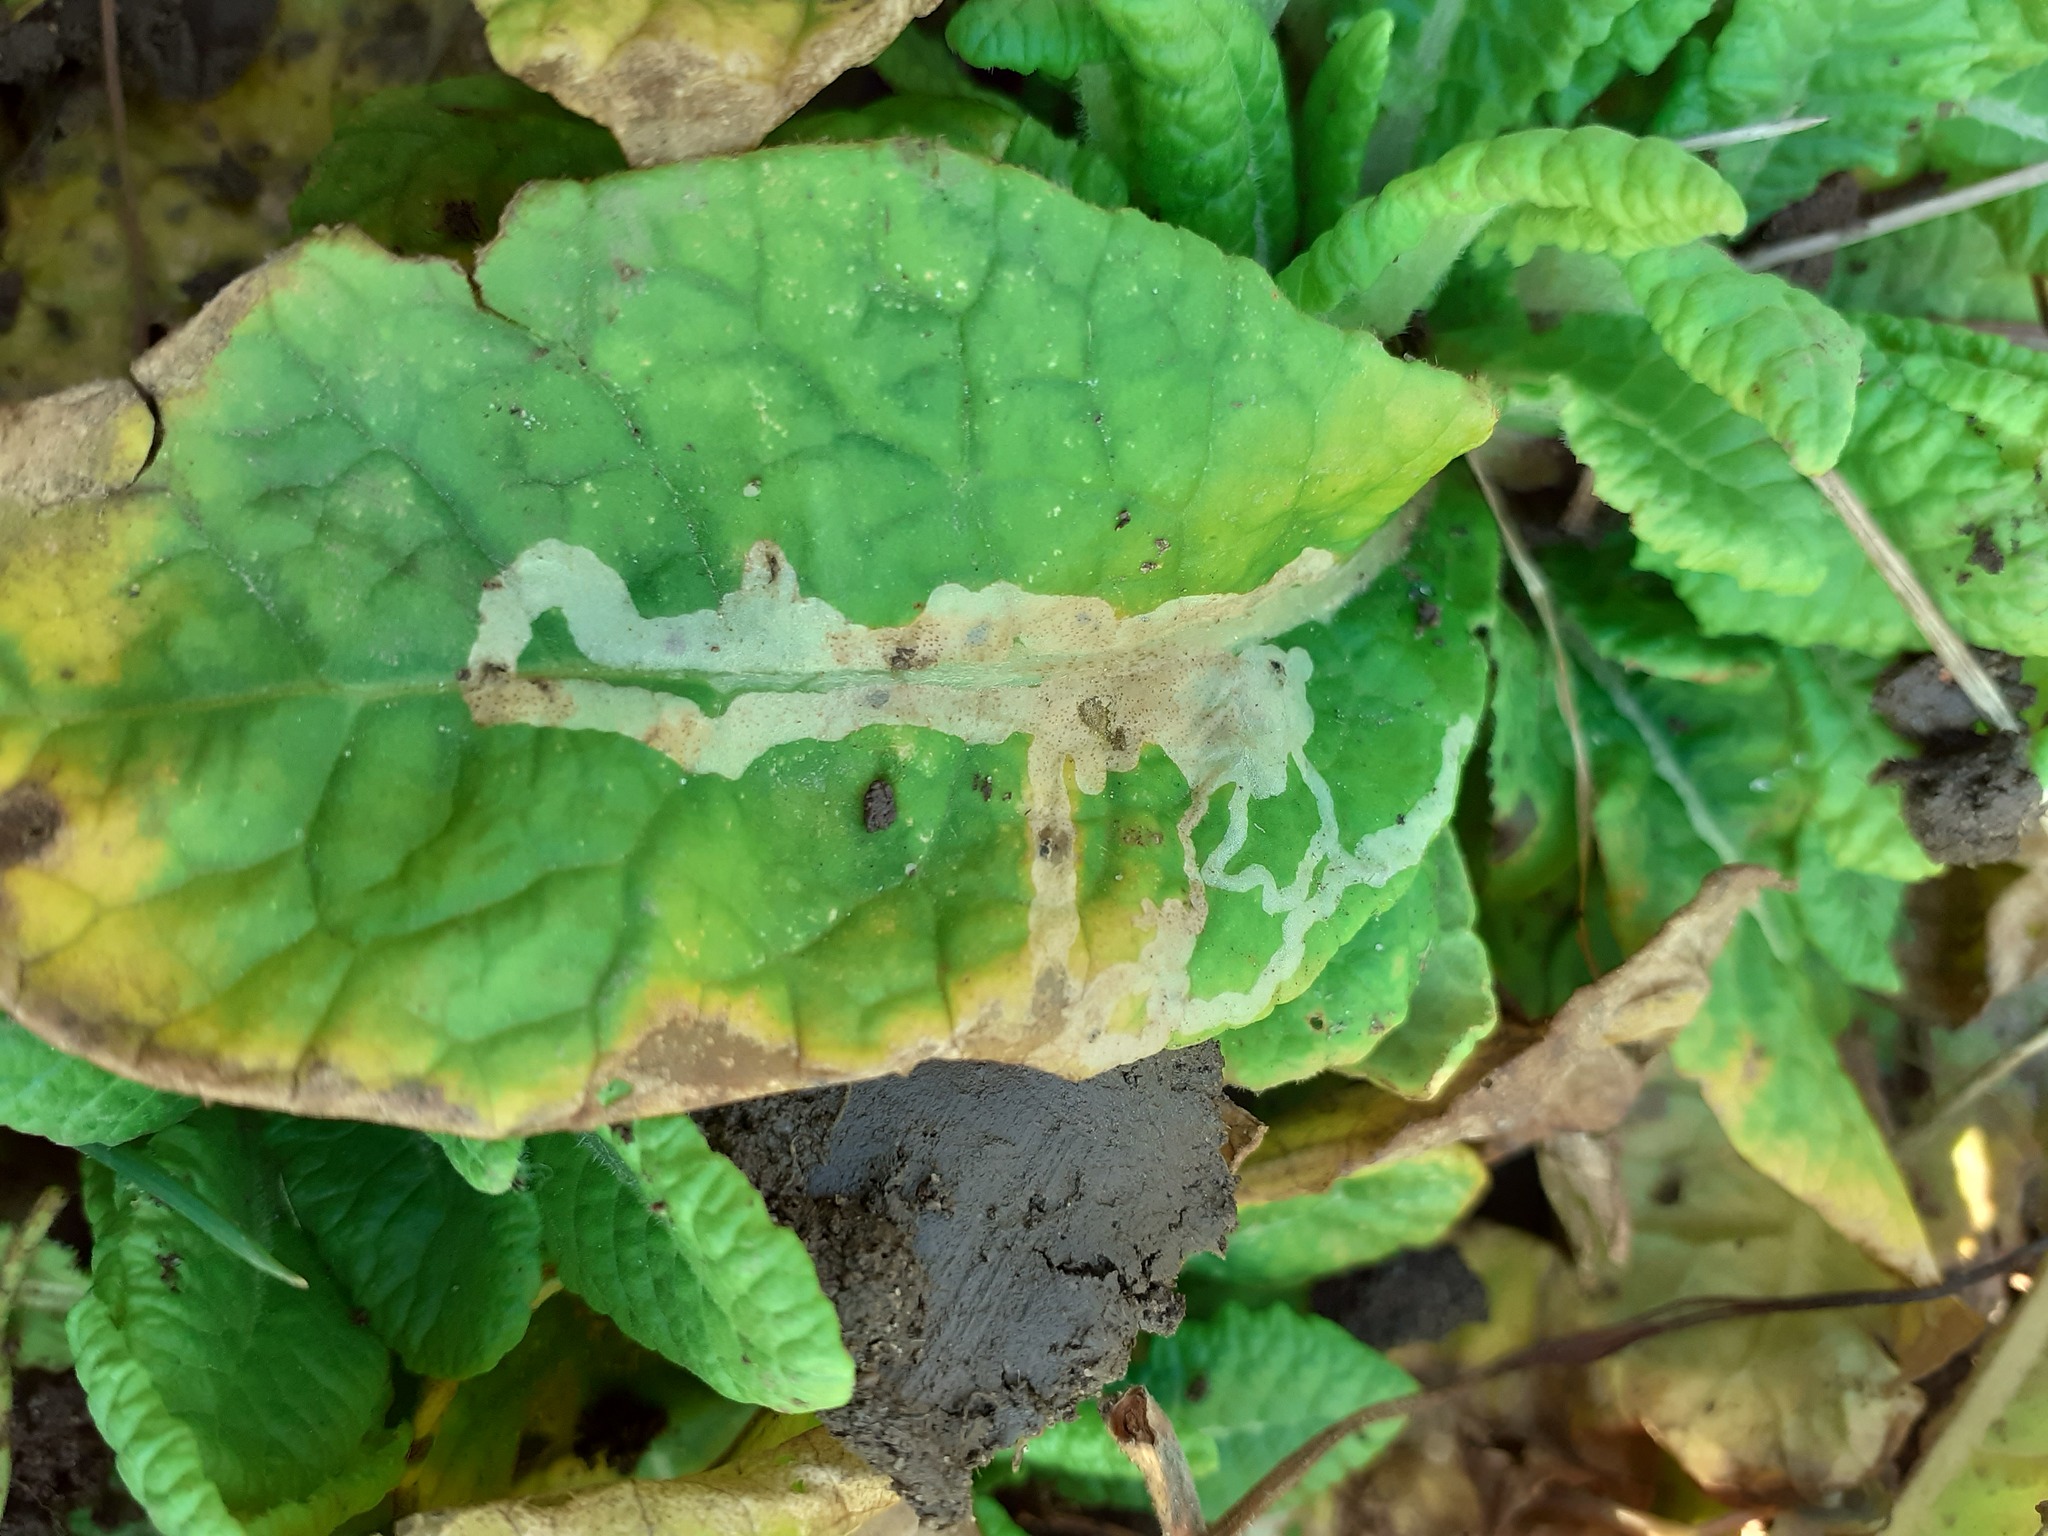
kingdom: Animalia
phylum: Arthropoda
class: Insecta
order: Diptera
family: Agromyzidae
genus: Phytomyza
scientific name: Phytomyza primulae
